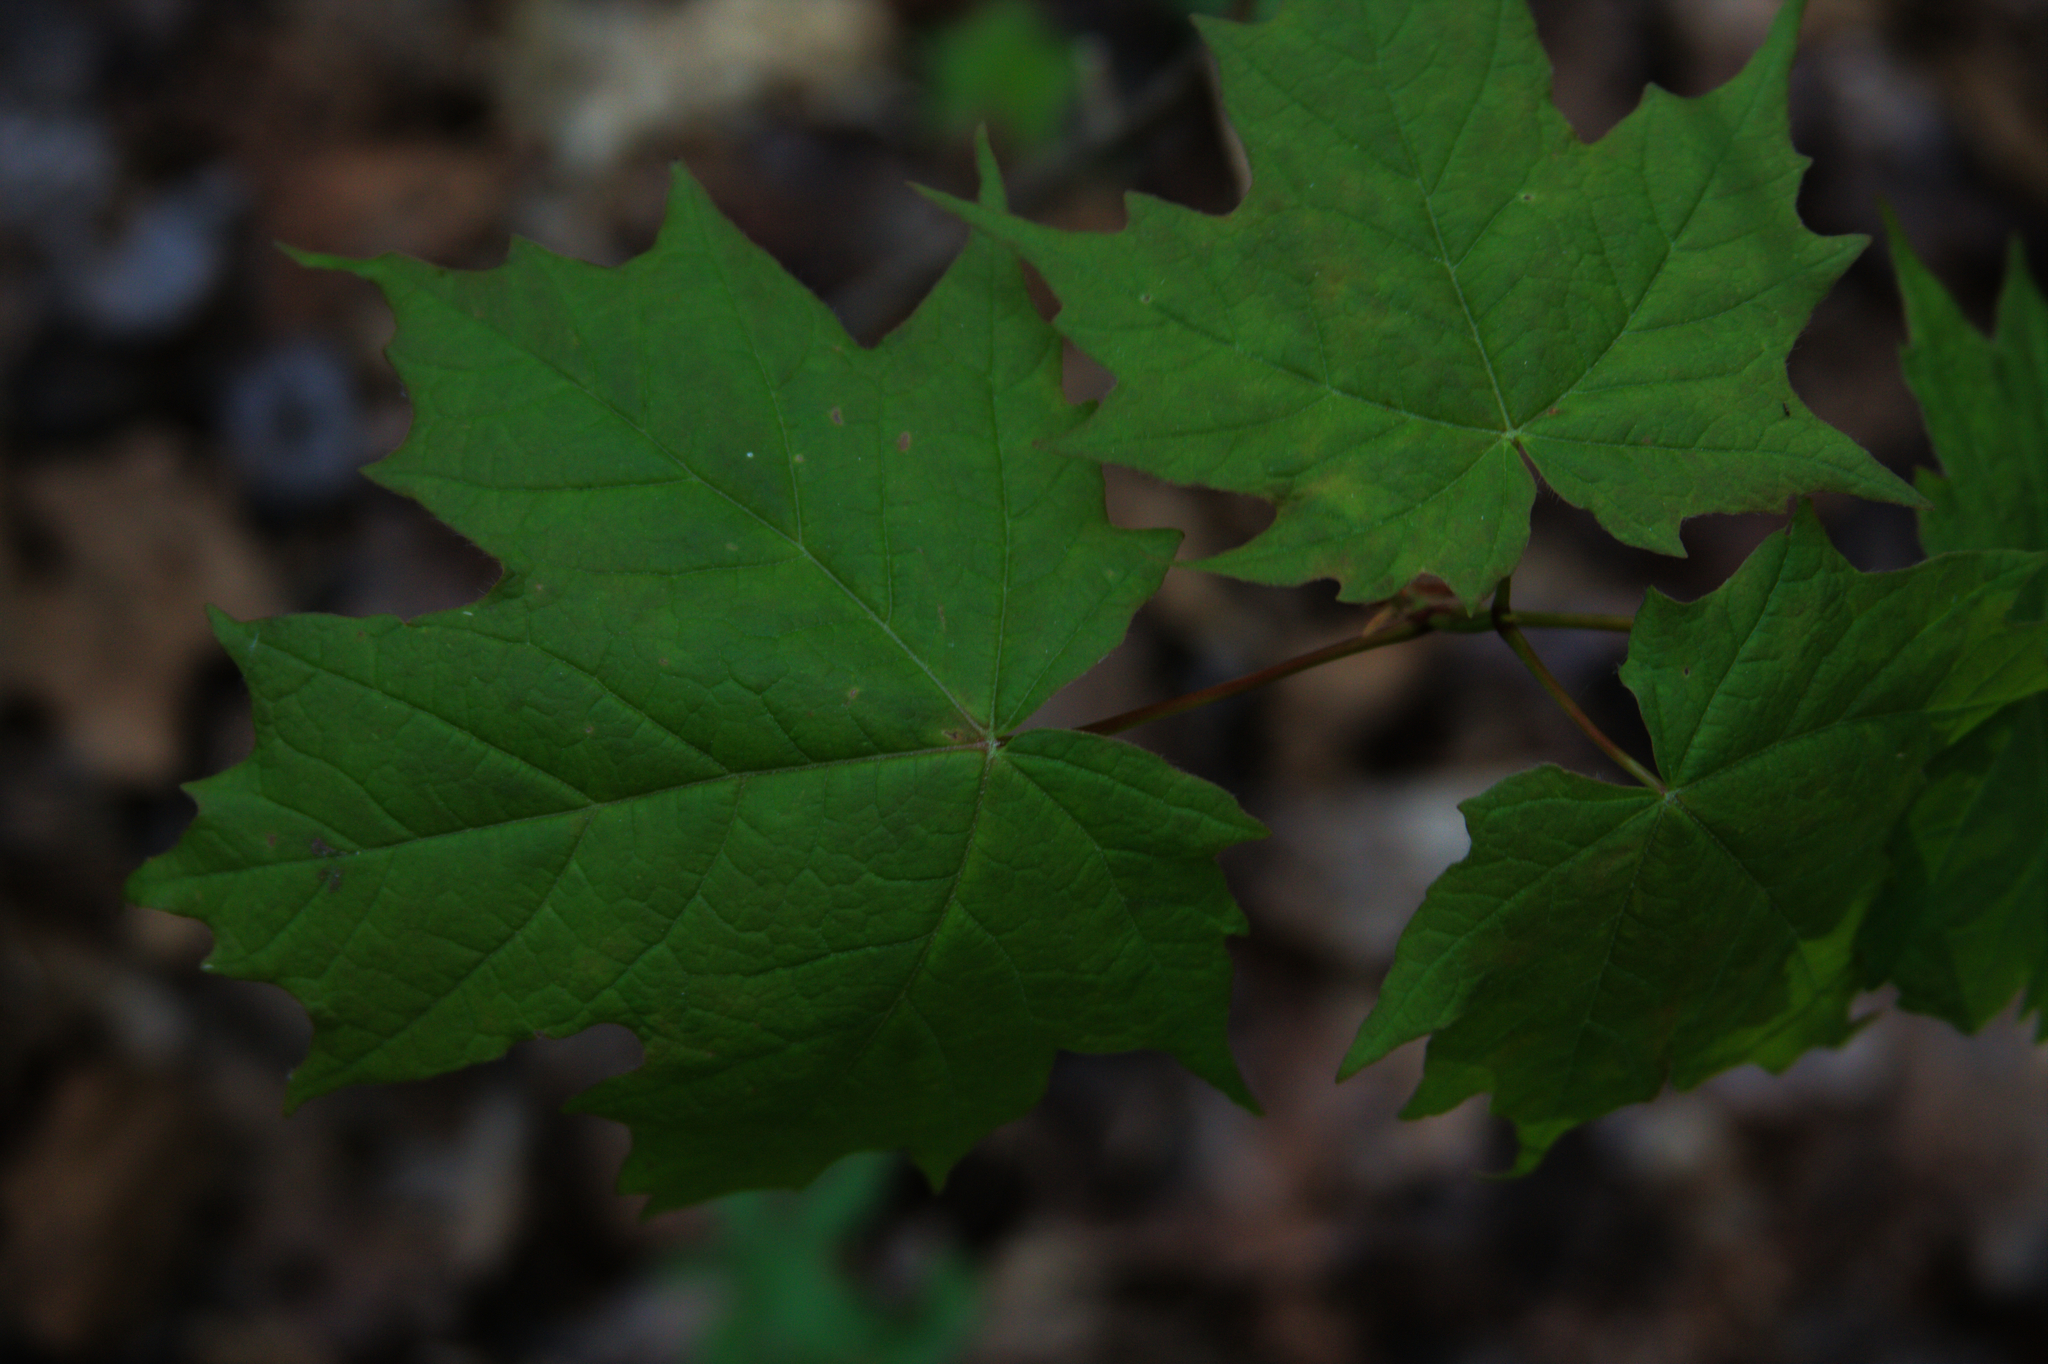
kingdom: Plantae
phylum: Tracheophyta
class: Magnoliopsida
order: Sapindales
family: Sapindaceae
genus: Acer
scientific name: Acer saccharum
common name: Sugar maple
